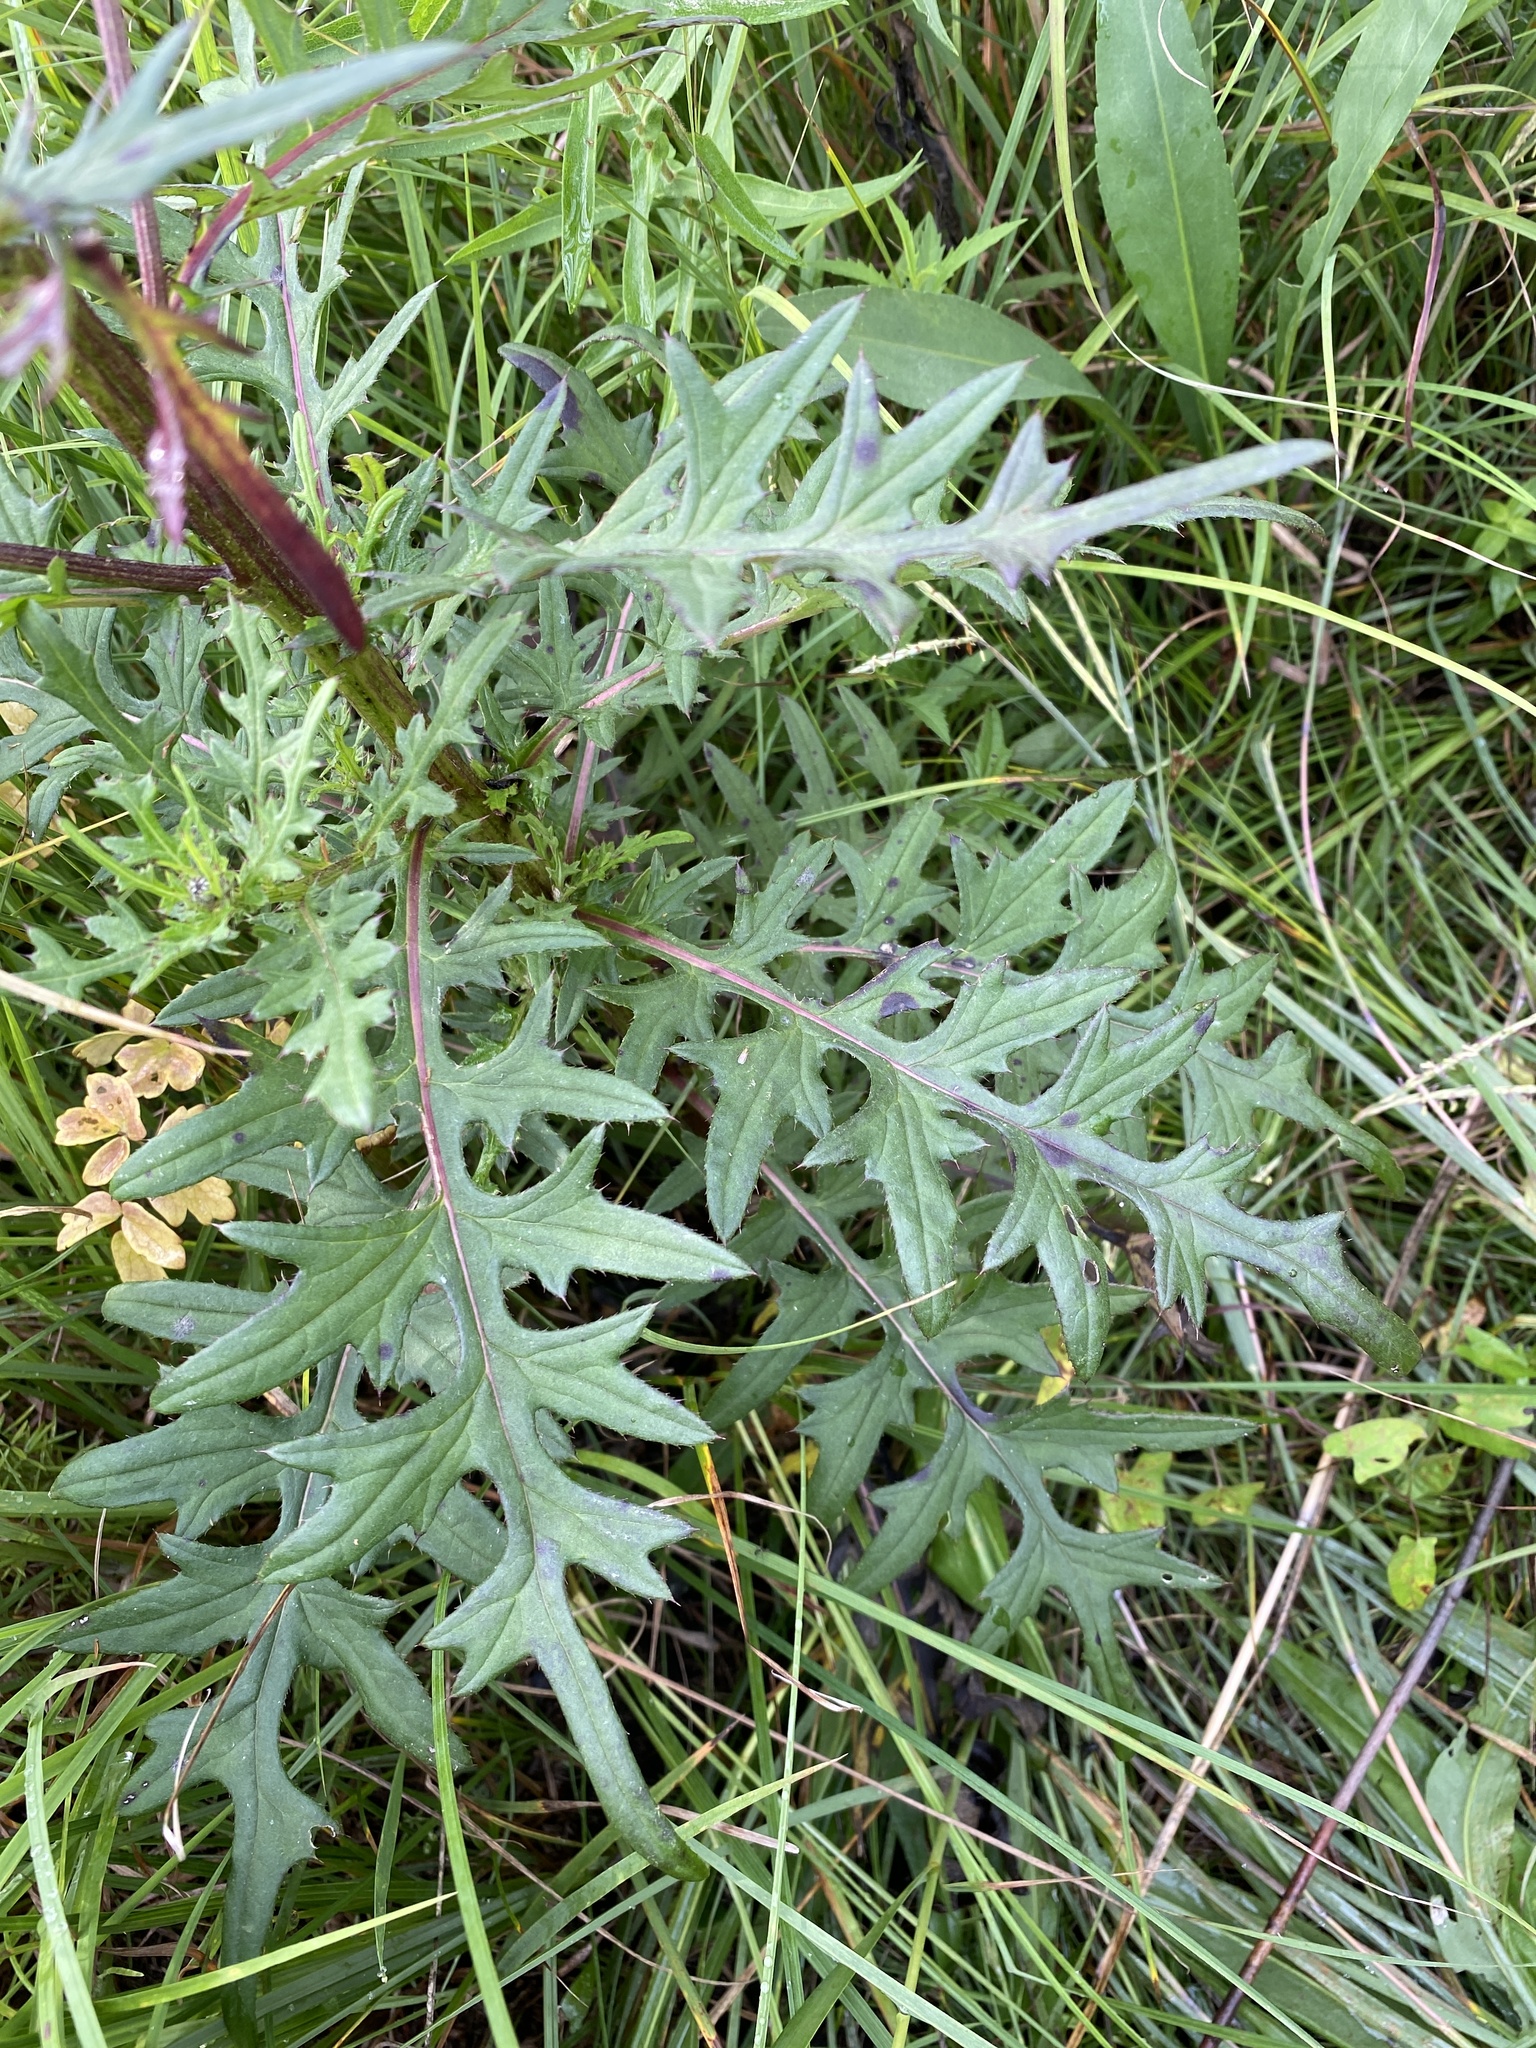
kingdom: Plantae
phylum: Tracheophyta
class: Magnoliopsida
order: Asterales
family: Asteraceae
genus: Cirsium
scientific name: Cirsium muticum
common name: Dunce-nettle
